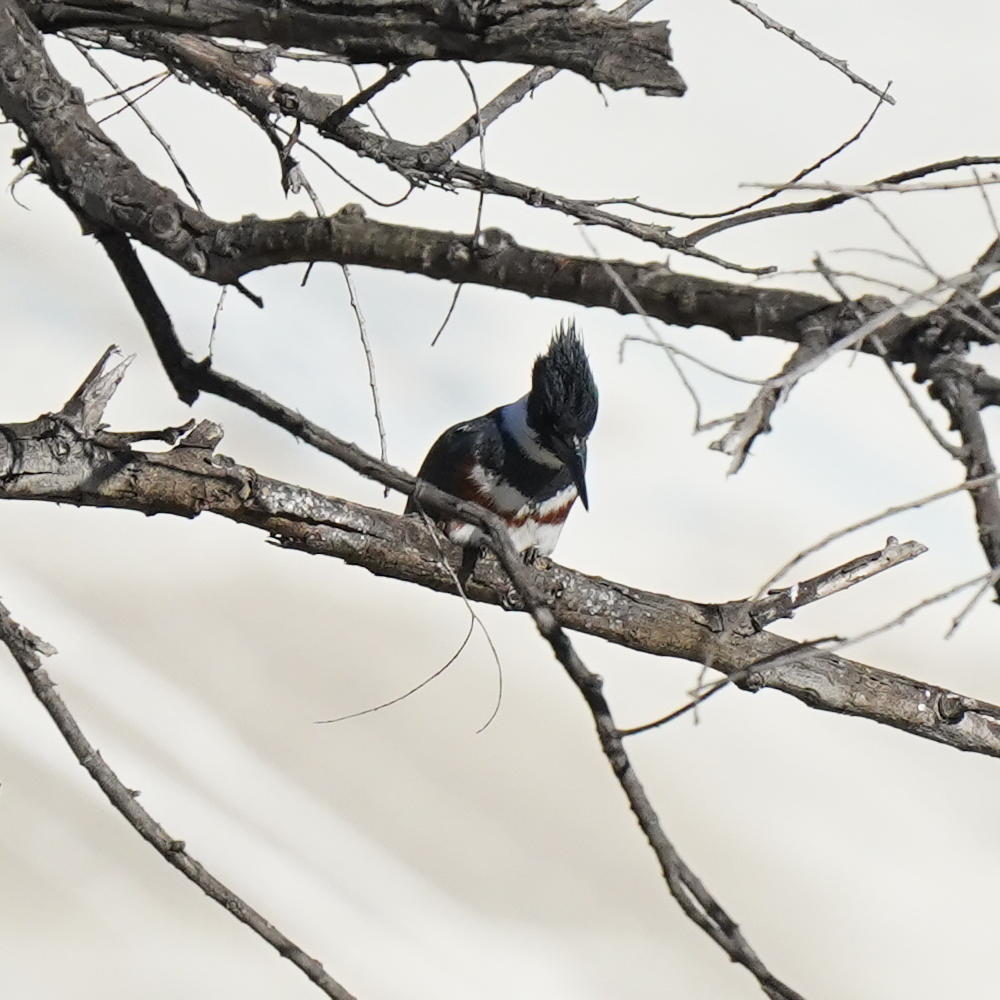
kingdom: Animalia
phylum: Chordata
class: Aves
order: Coraciiformes
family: Alcedinidae
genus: Megaceryle
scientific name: Megaceryle alcyon
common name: Belted kingfisher
